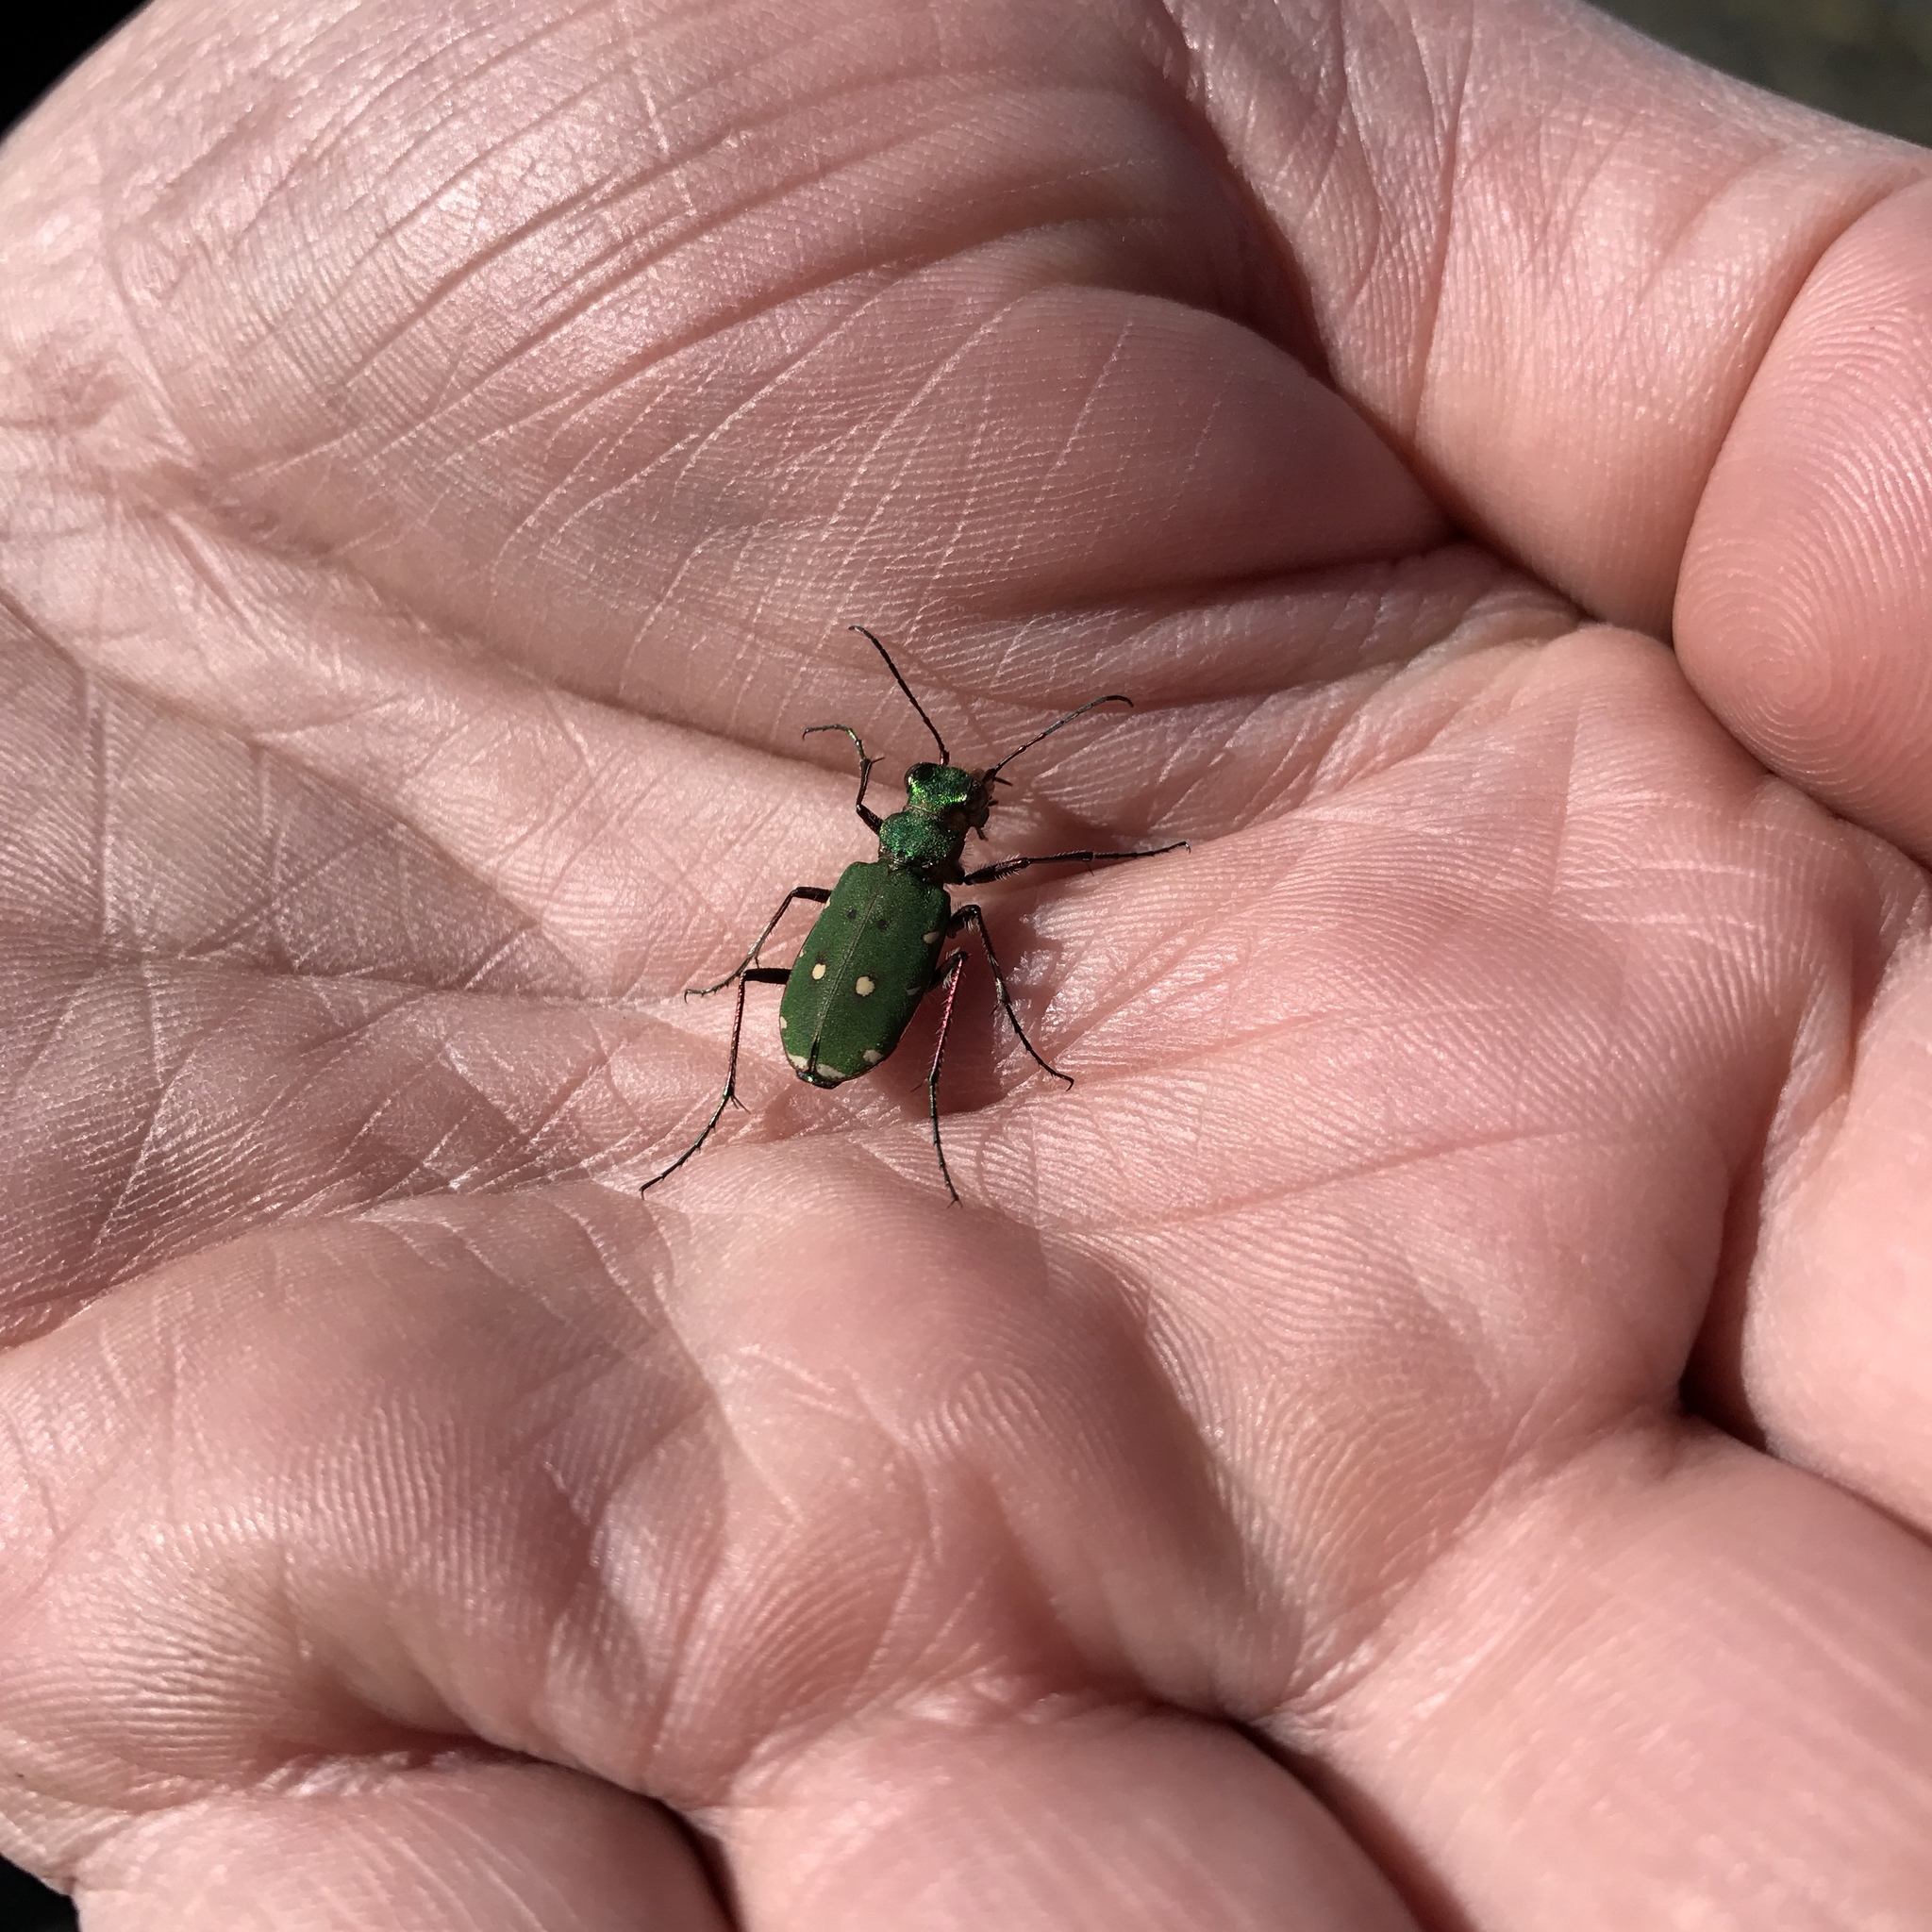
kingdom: Animalia
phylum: Arthropoda
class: Insecta
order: Coleoptera
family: Carabidae
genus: Cicindela
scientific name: Cicindela campestris
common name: Common tiger beetle
